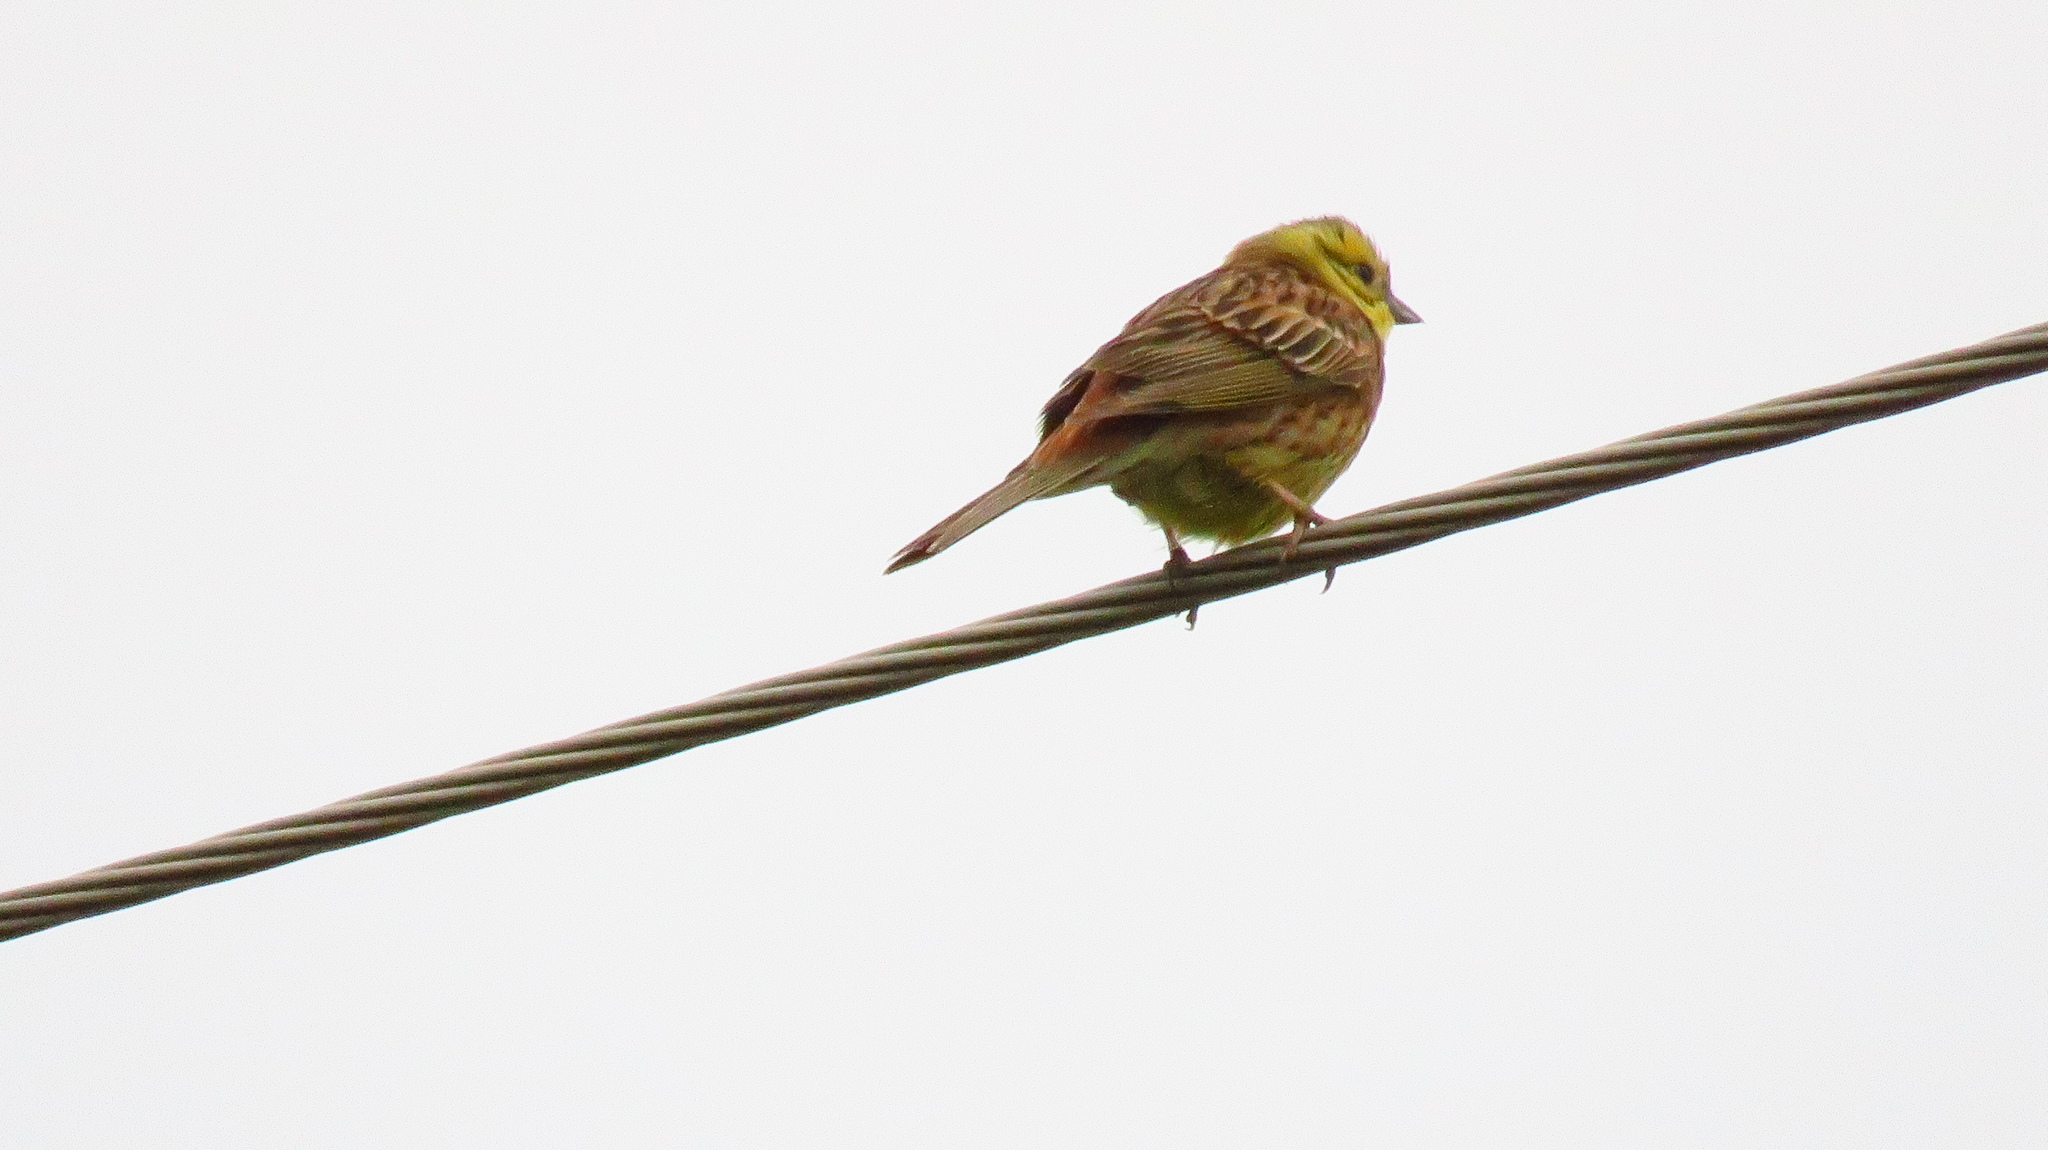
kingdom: Animalia
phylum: Chordata
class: Aves
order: Passeriformes
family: Emberizidae
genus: Emberiza
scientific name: Emberiza citrinella
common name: Yellowhammer
